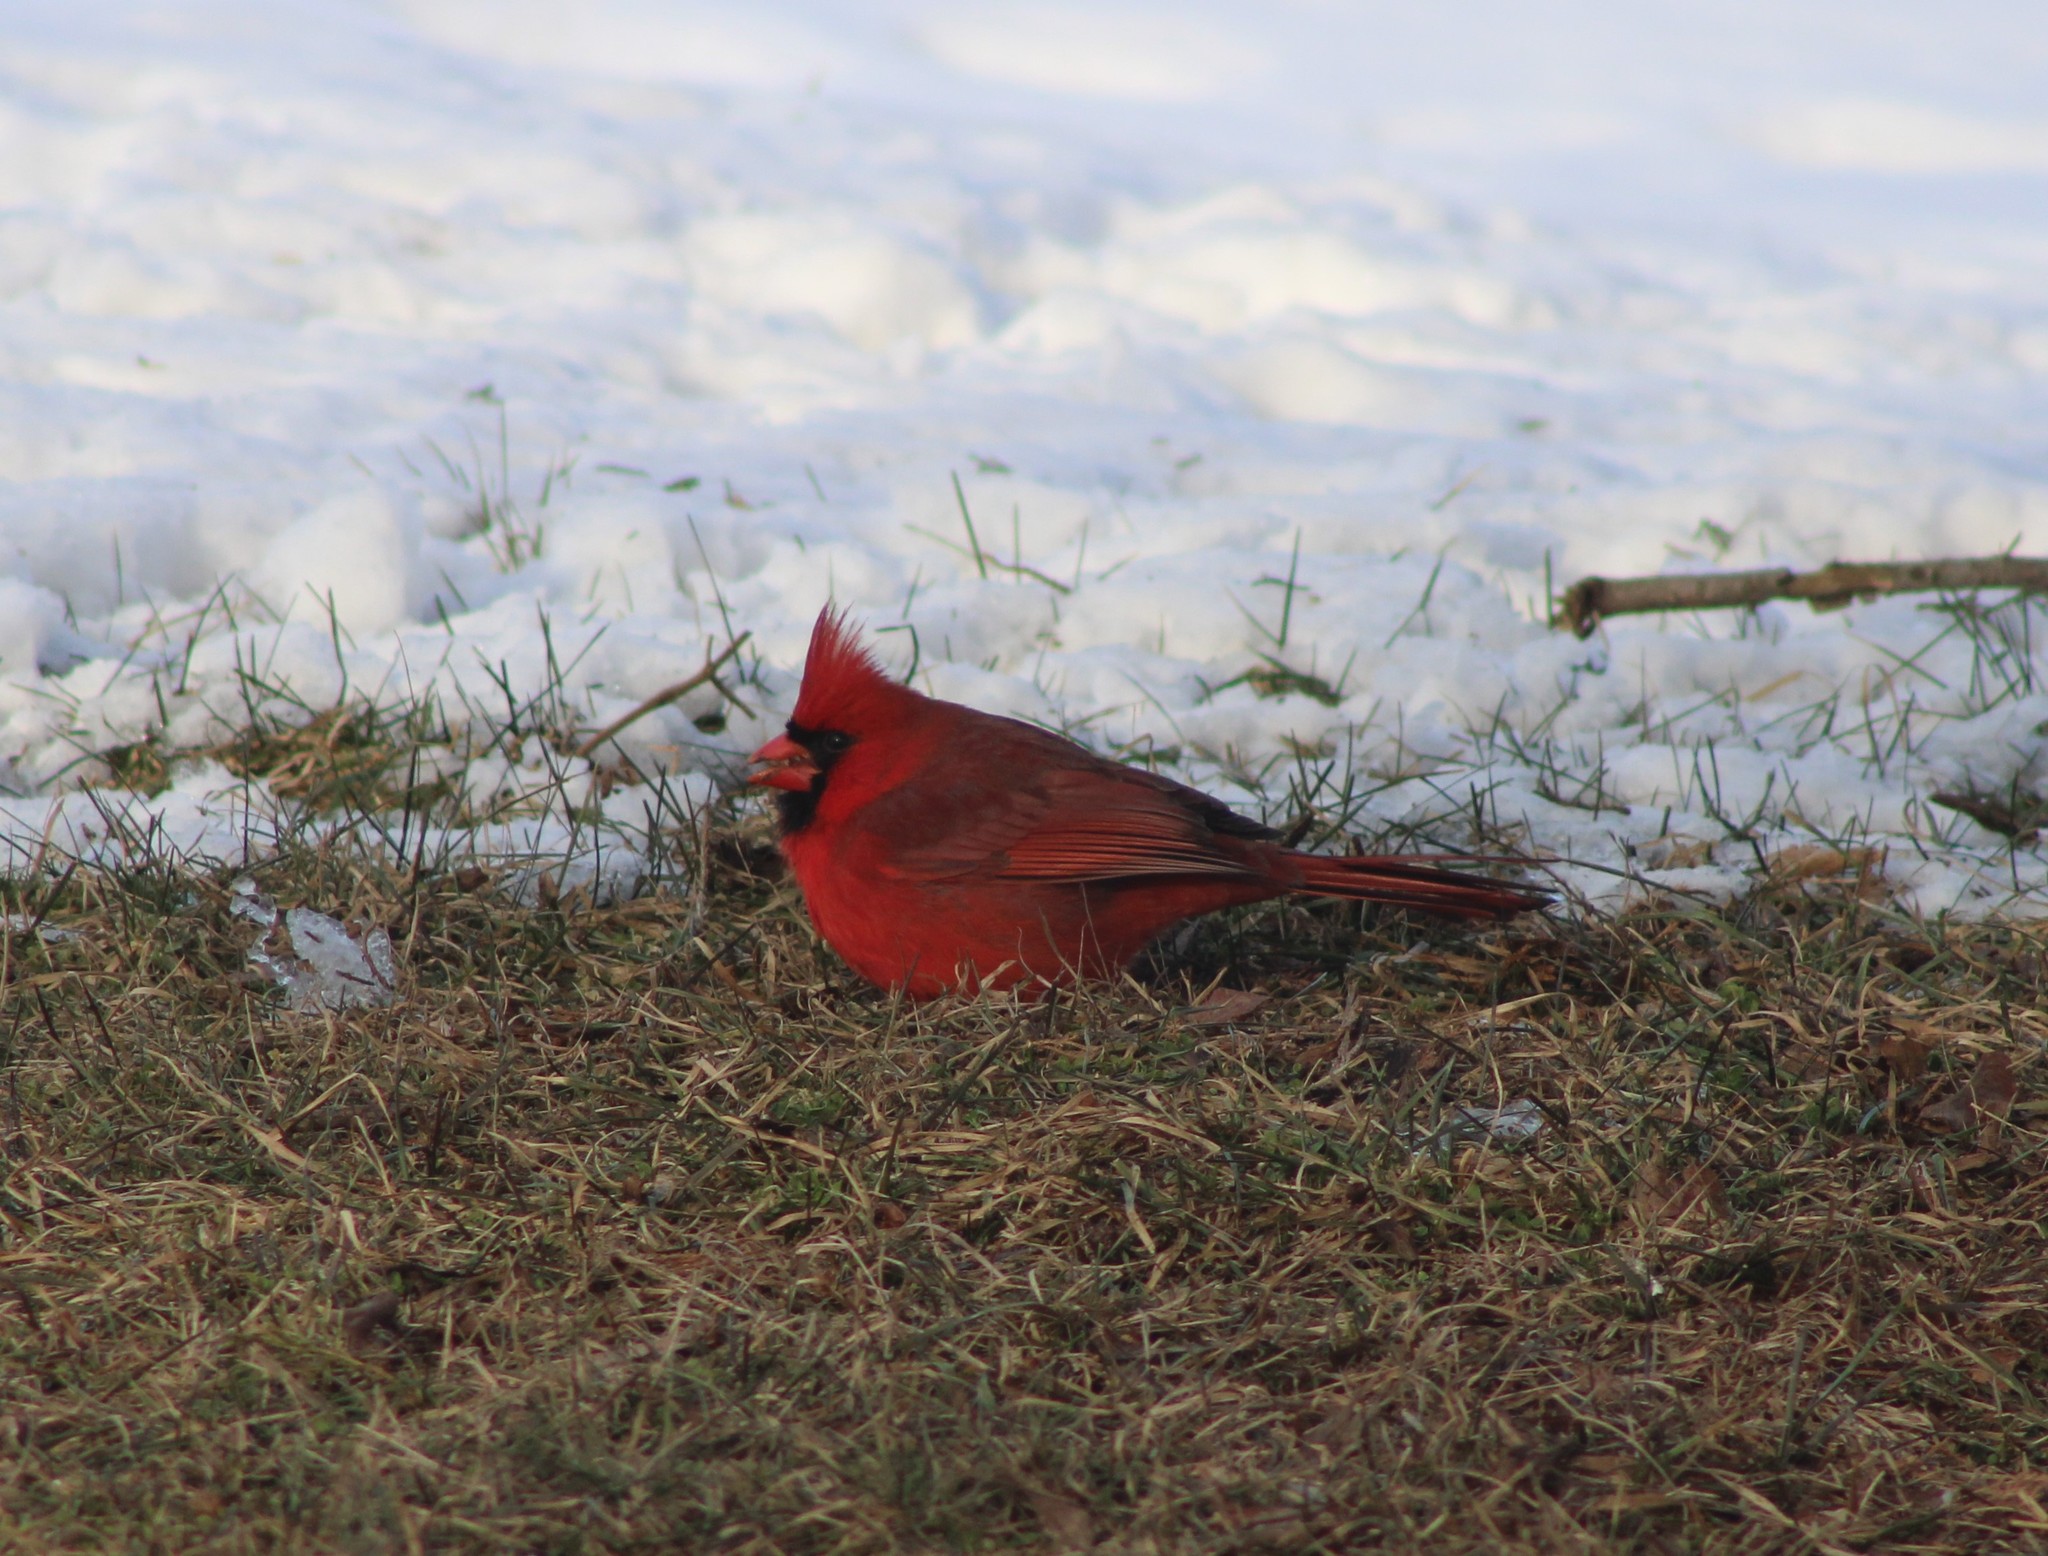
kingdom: Animalia
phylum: Chordata
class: Aves
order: Passeriformes
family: Cardinalidae
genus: Cardinalis
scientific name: Cardinalis cardinalis
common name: Northern cardinal
